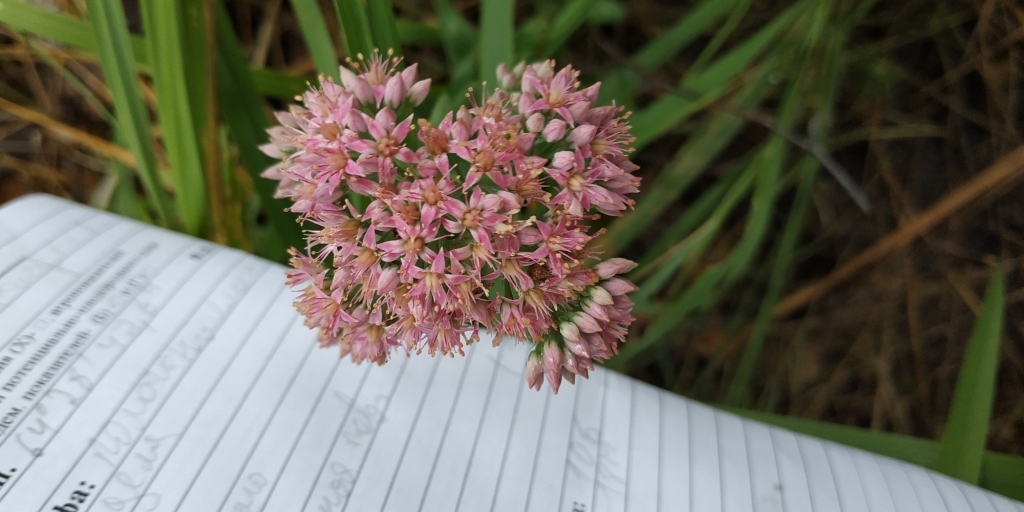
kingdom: Plantae
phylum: Tracheophyta
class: Magnoliopsida
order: Saxifragales
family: Crassulaceae
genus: Hylotelephium
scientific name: Hylotelephium telephium
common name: Live-forever
